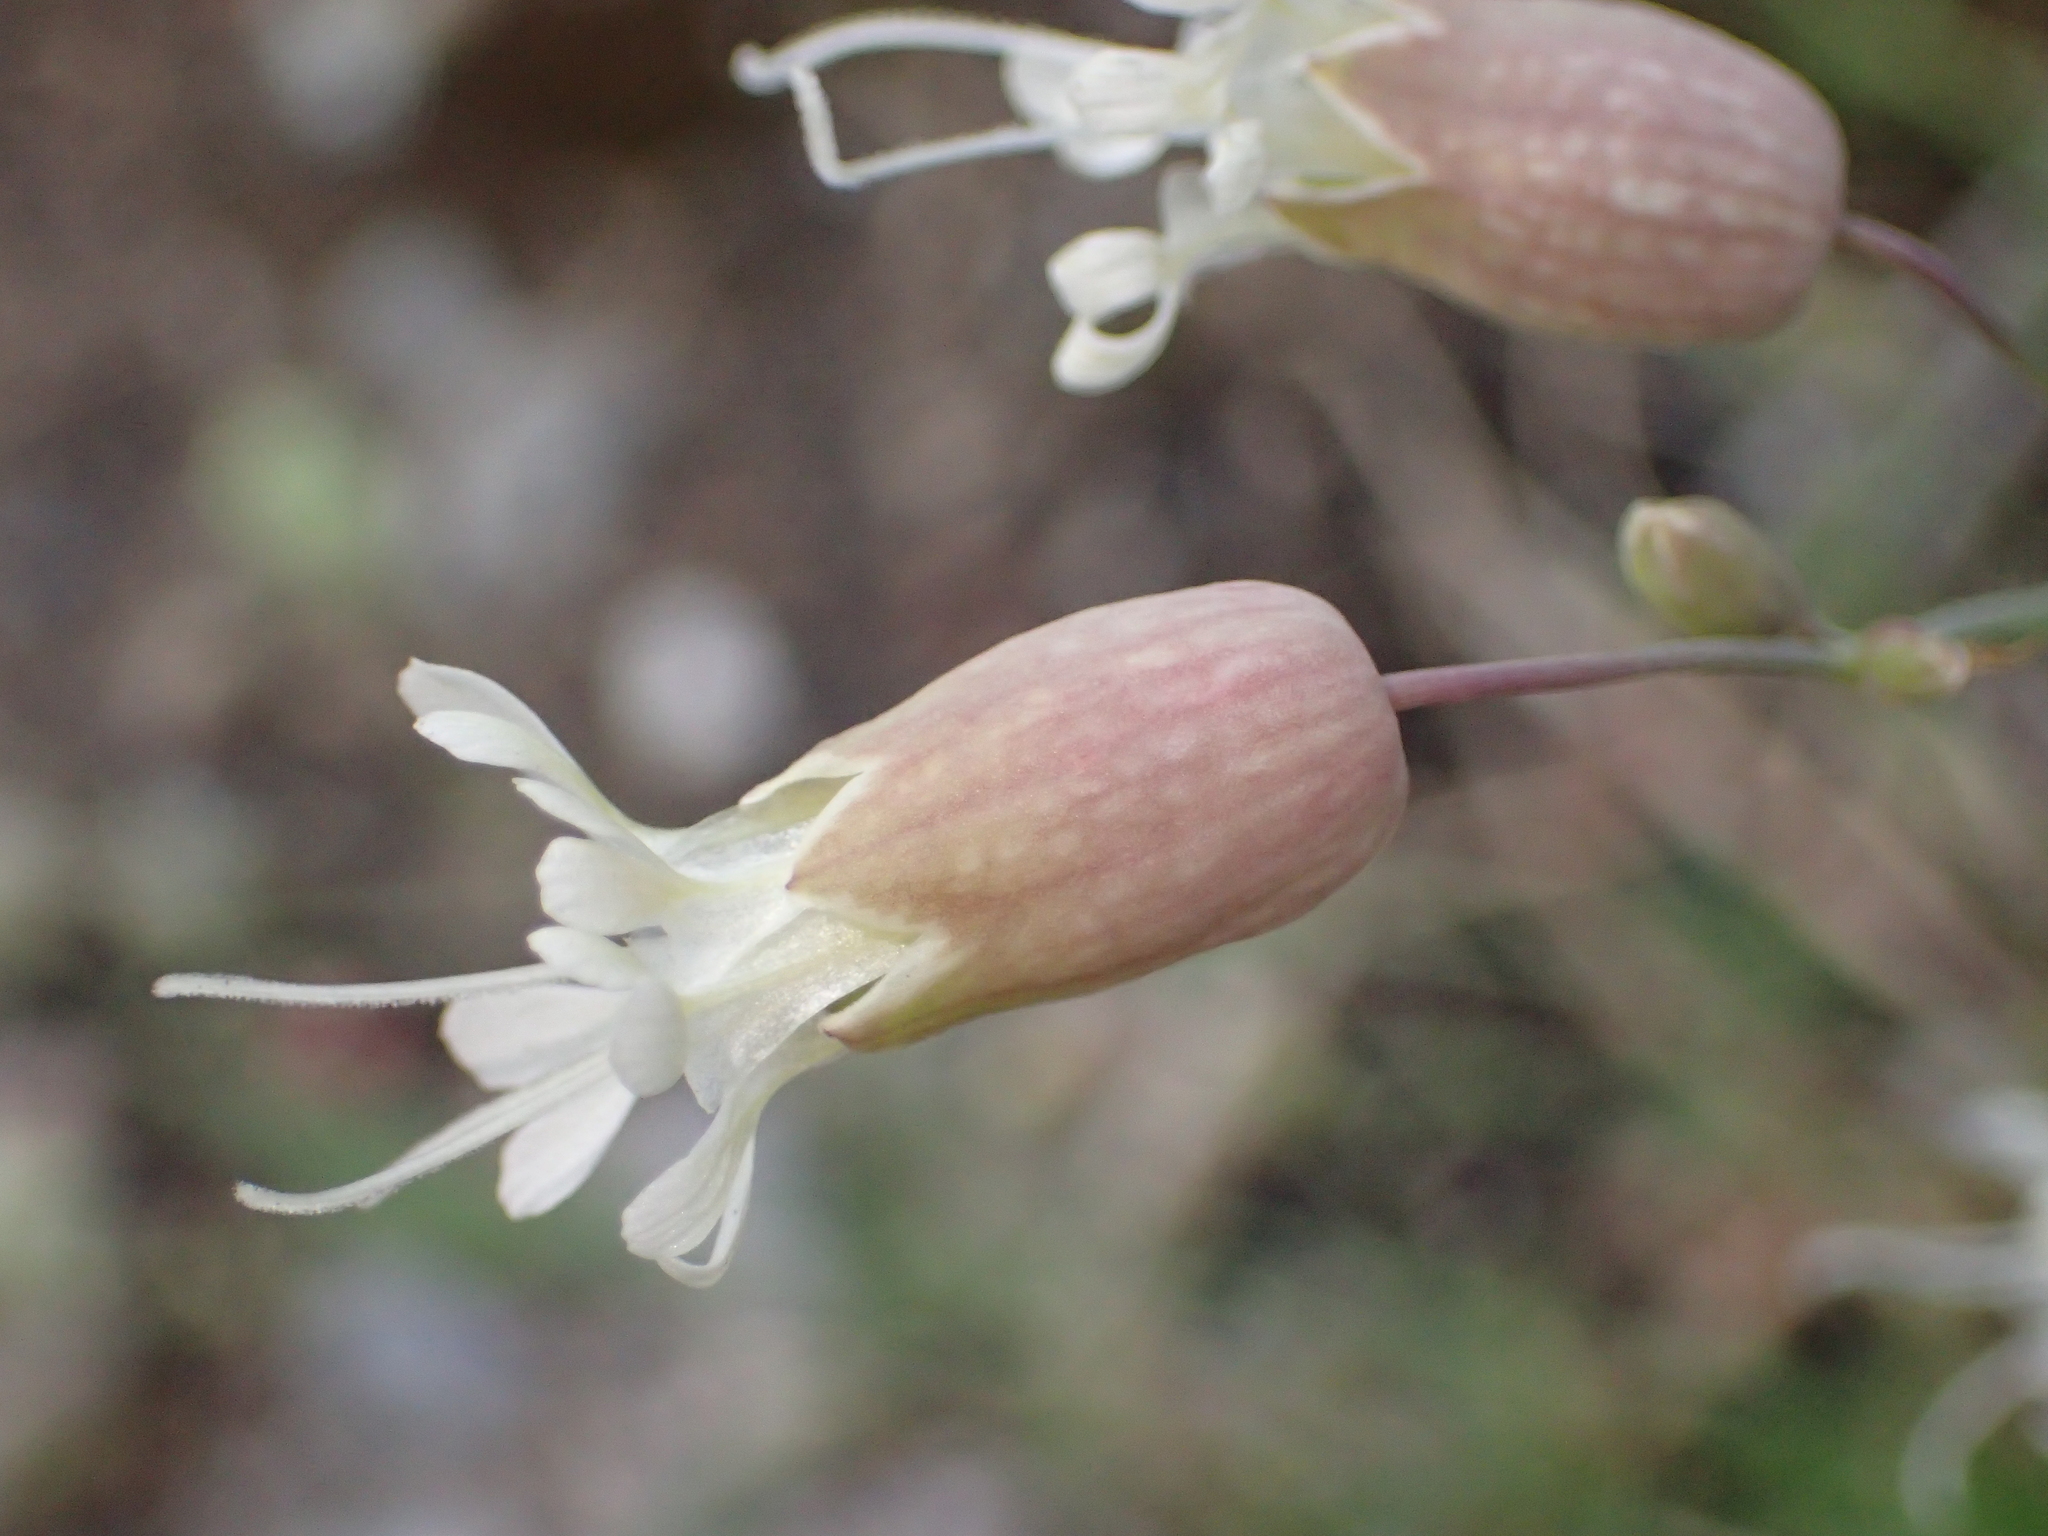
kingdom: Plantae
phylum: Tracheophyta
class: Magnoliopsida
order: Caryophyllales
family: Caryophyllaceae
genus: Silene
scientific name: Silene vulgaris
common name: Bladder campion
